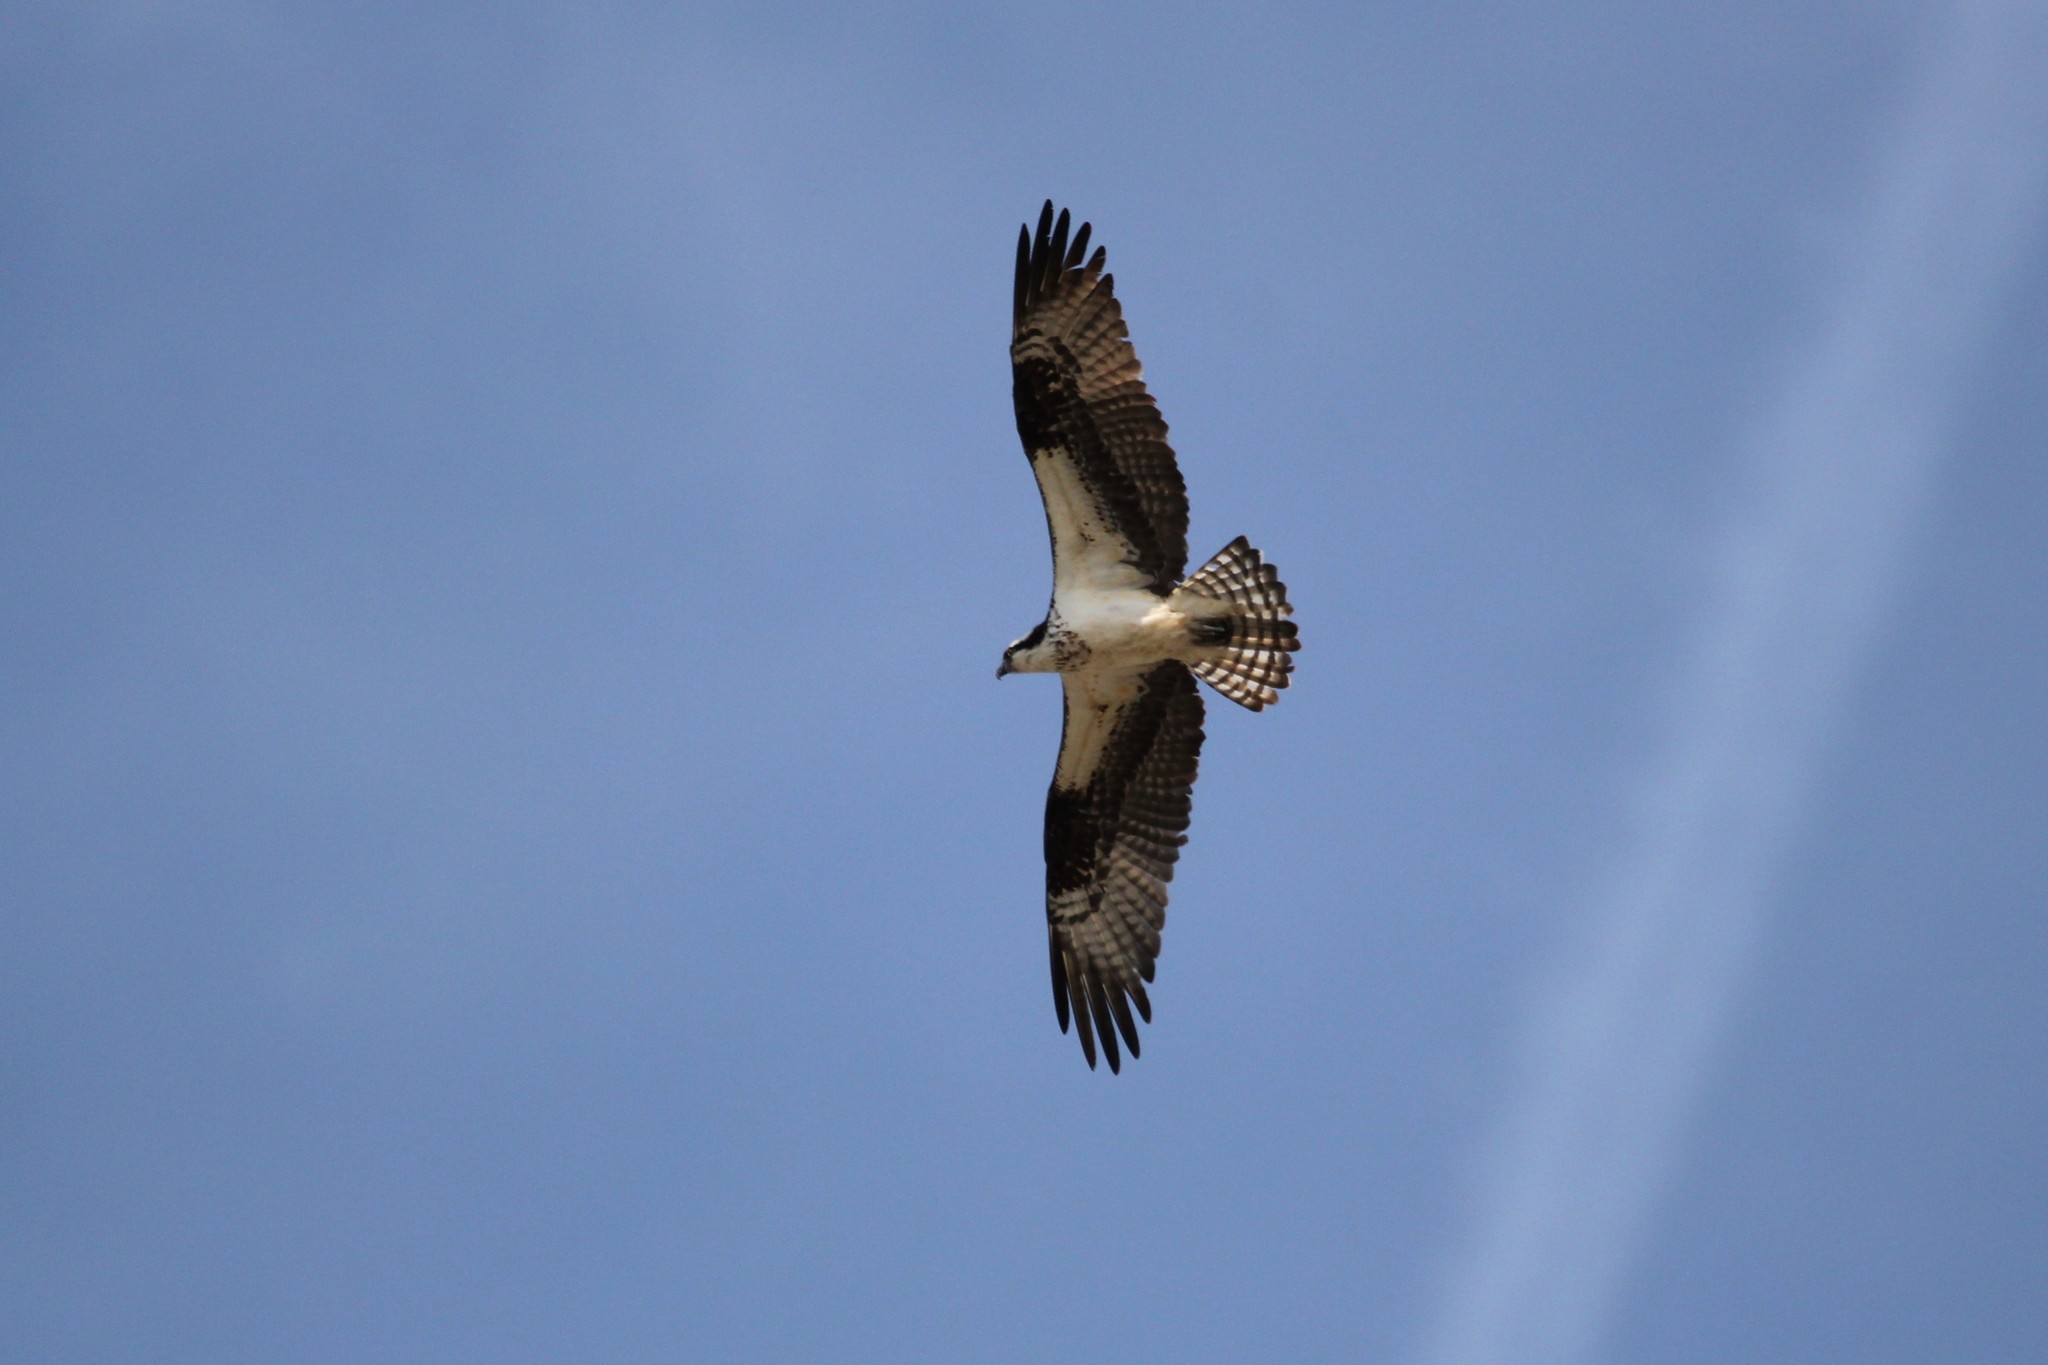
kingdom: Animalia
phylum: Chordata
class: Aves
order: Accipitriformes
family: Pandionidae
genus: Pandion
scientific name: Pandion haliaetus
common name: Osprey
